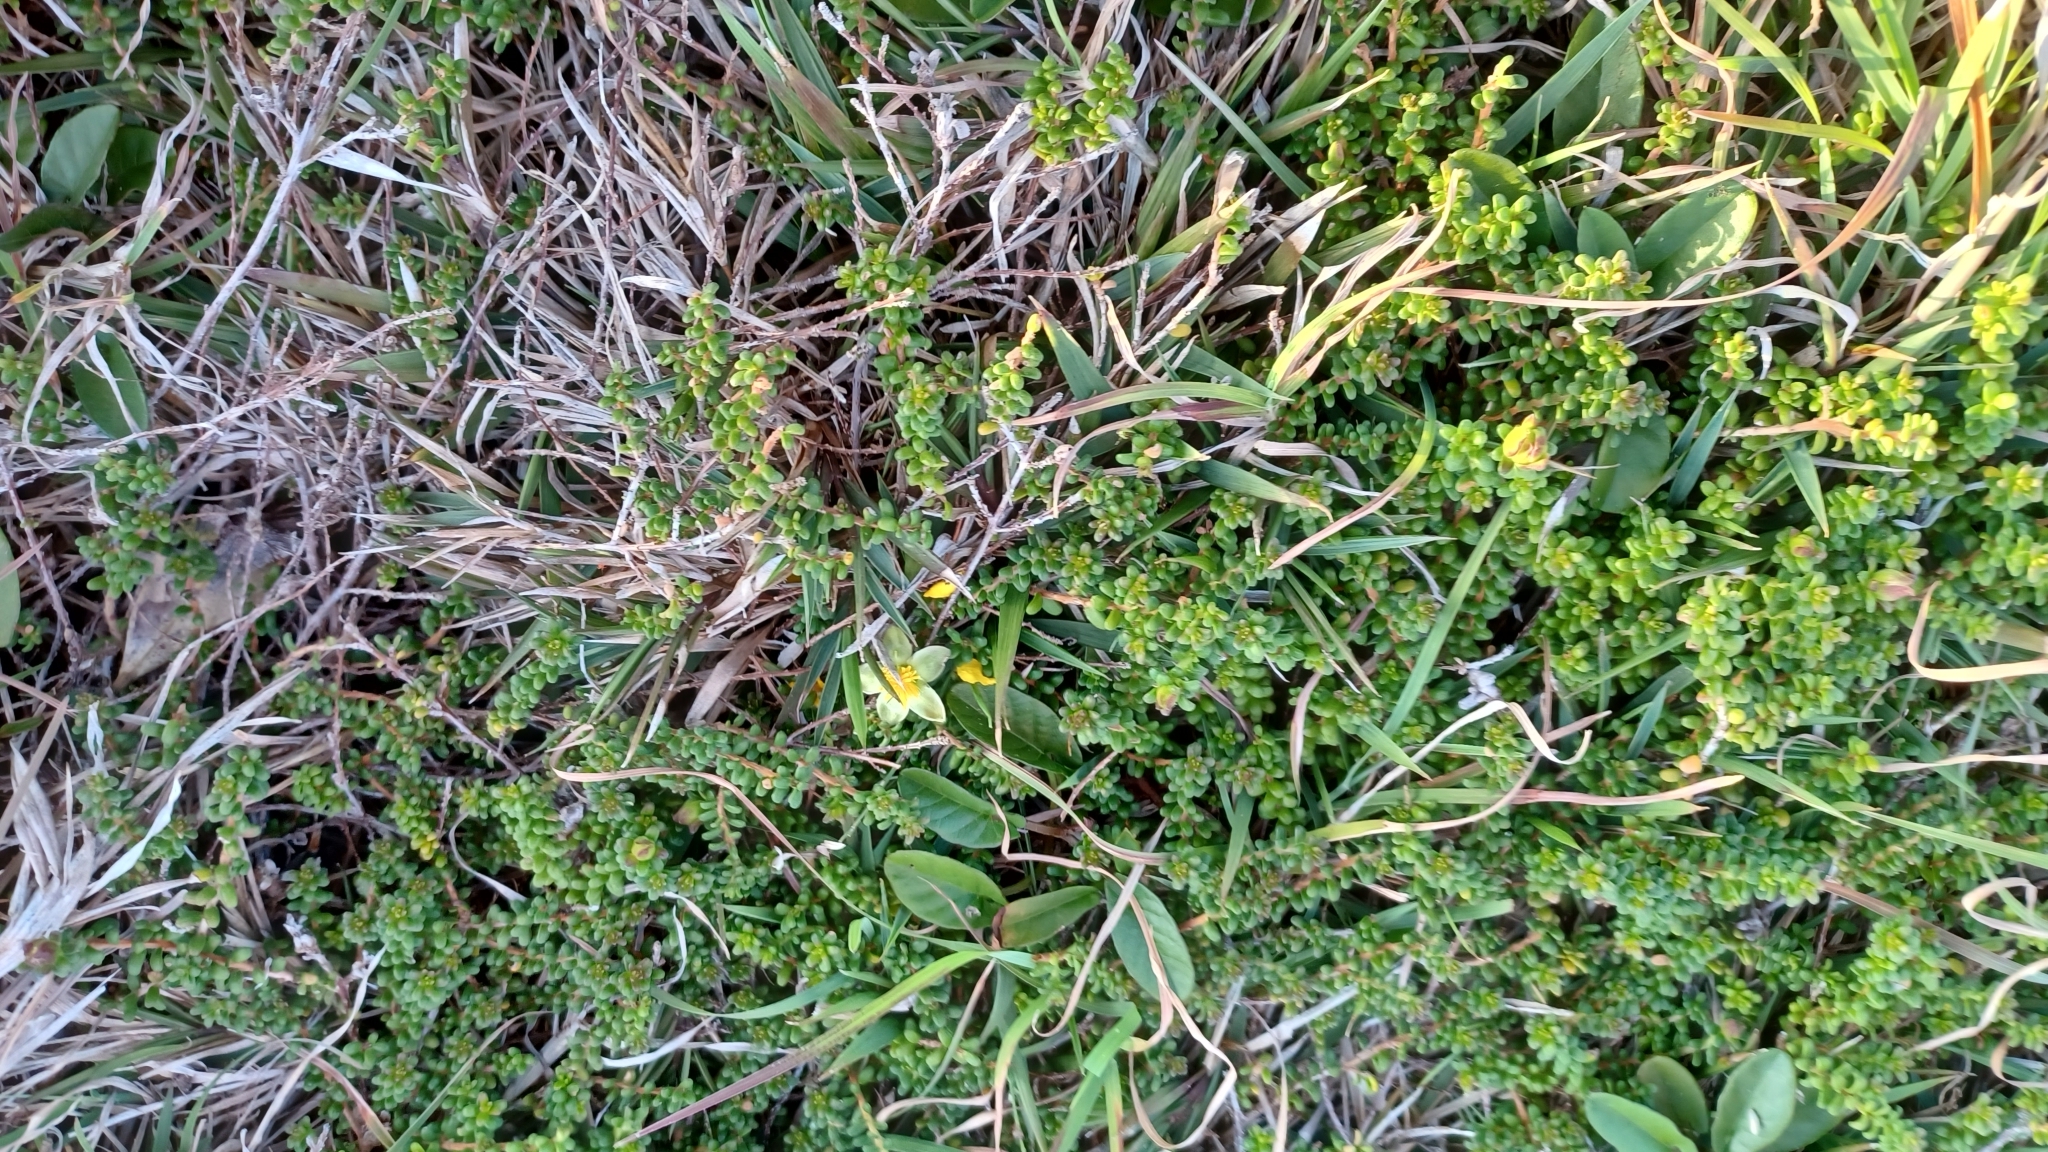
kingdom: Plantae
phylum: Tracheophyta
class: Magnoliopsida
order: Dilleniales
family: Dilleniaceae
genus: Hibbertia
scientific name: Hibbertia vestita
